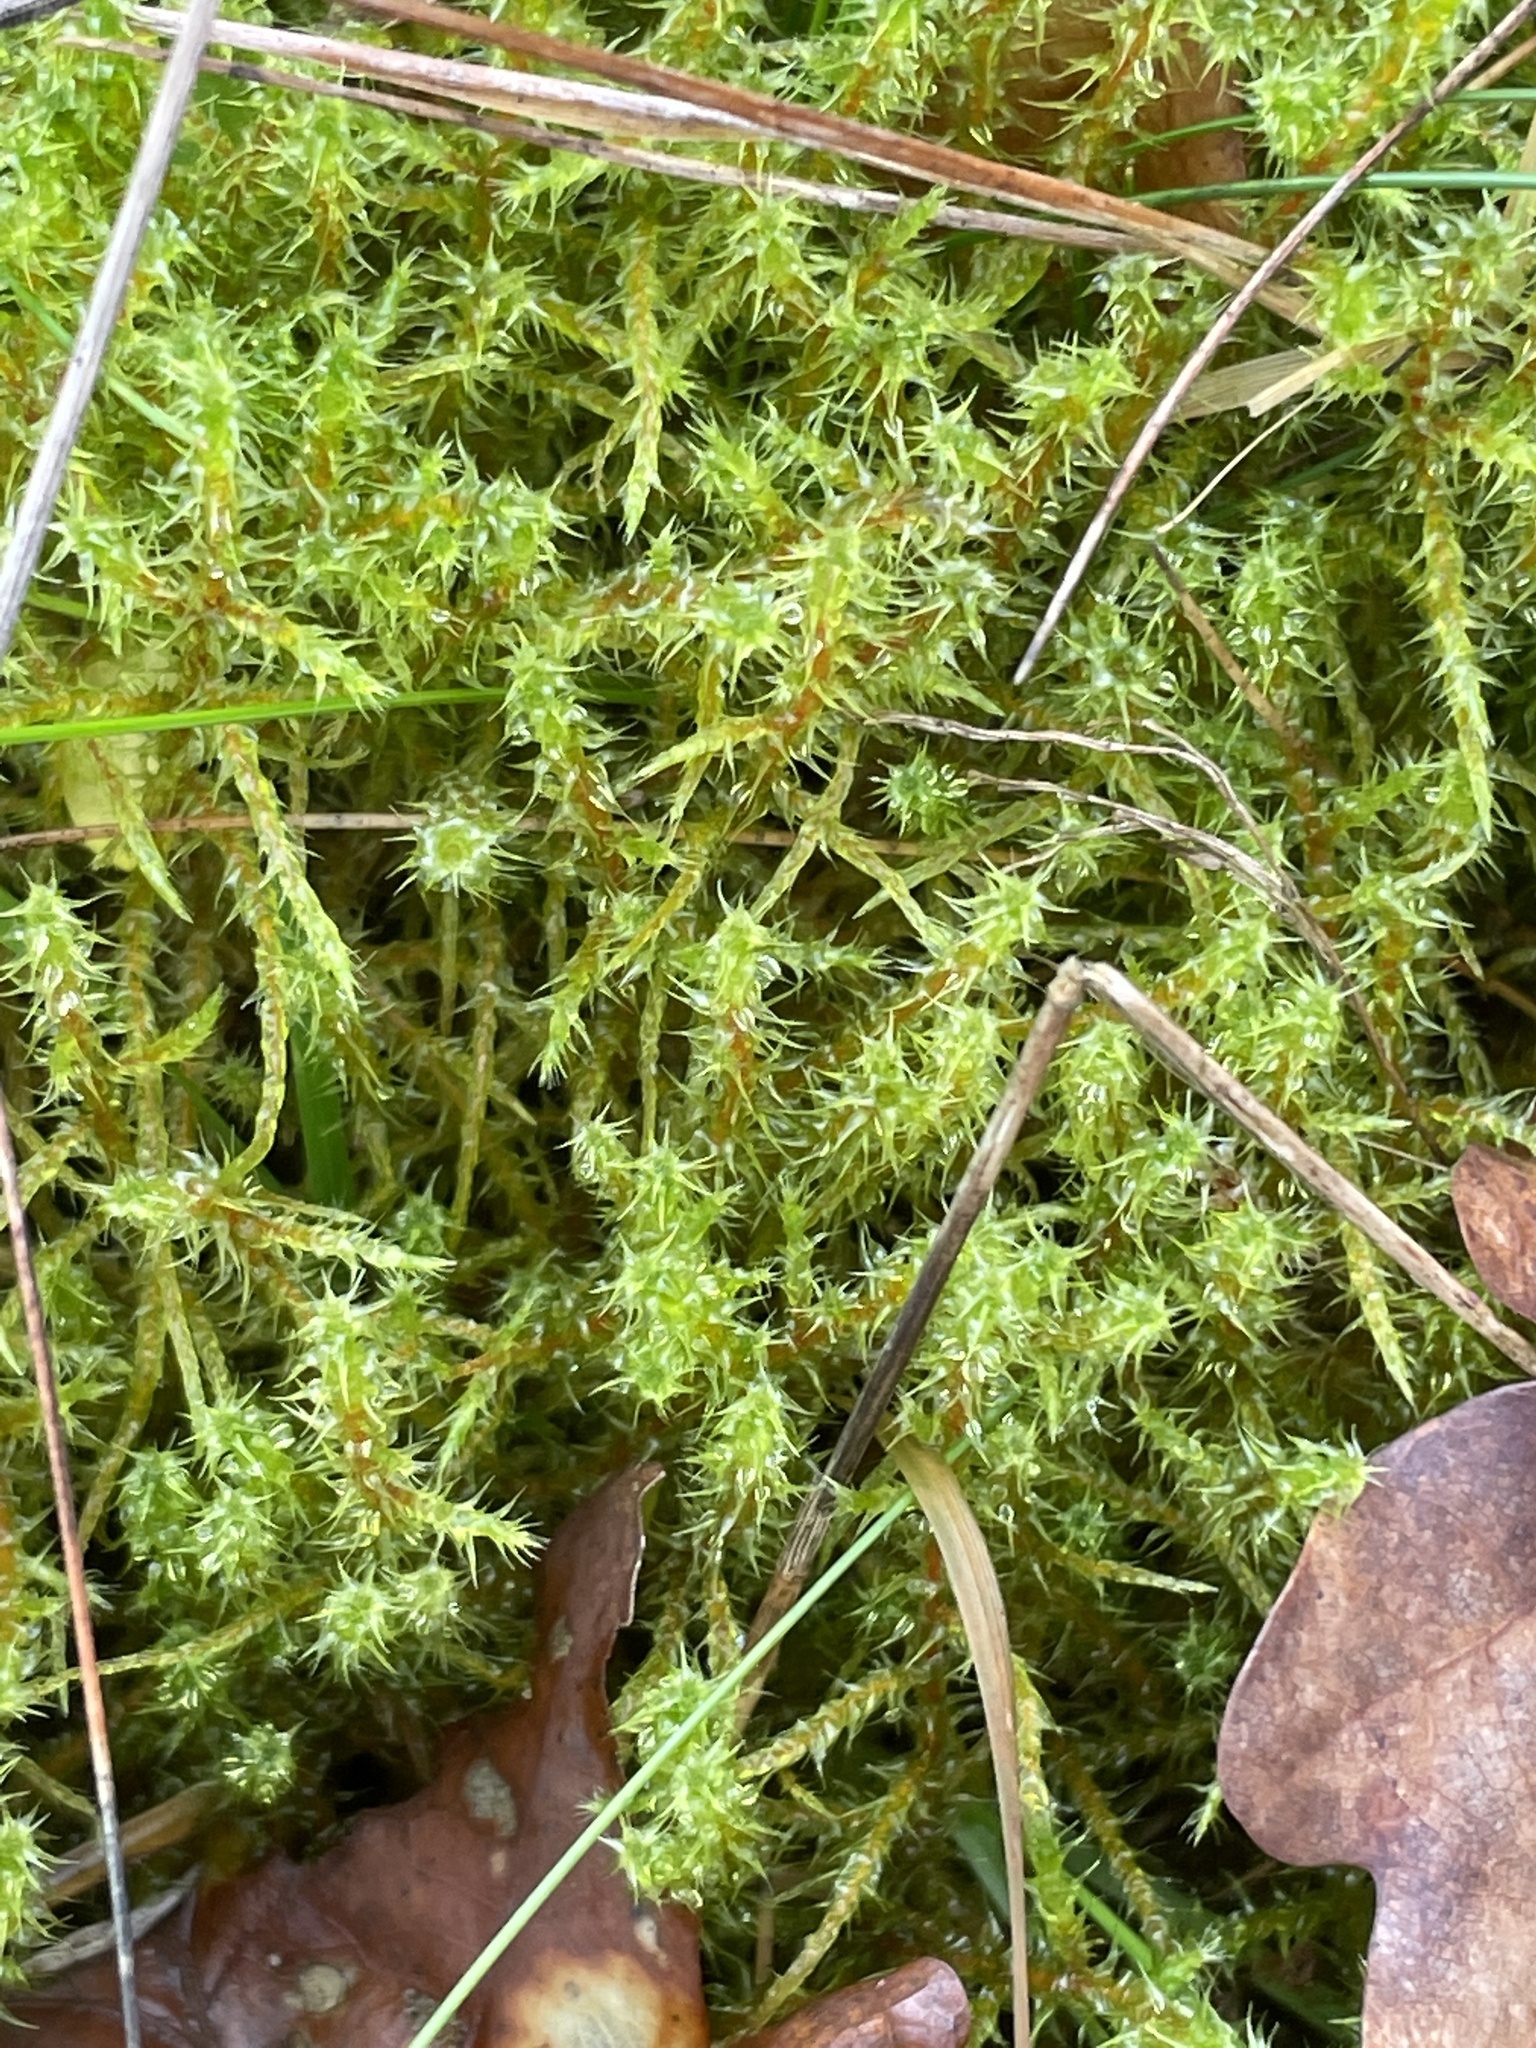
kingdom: Plantae
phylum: Bryophyta
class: Bryopsida
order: Hypnales
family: Hylocomiaceae
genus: Rhytidiadelphus
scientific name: Rhytidiadelphus squarrosus
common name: Springy turf-moss
